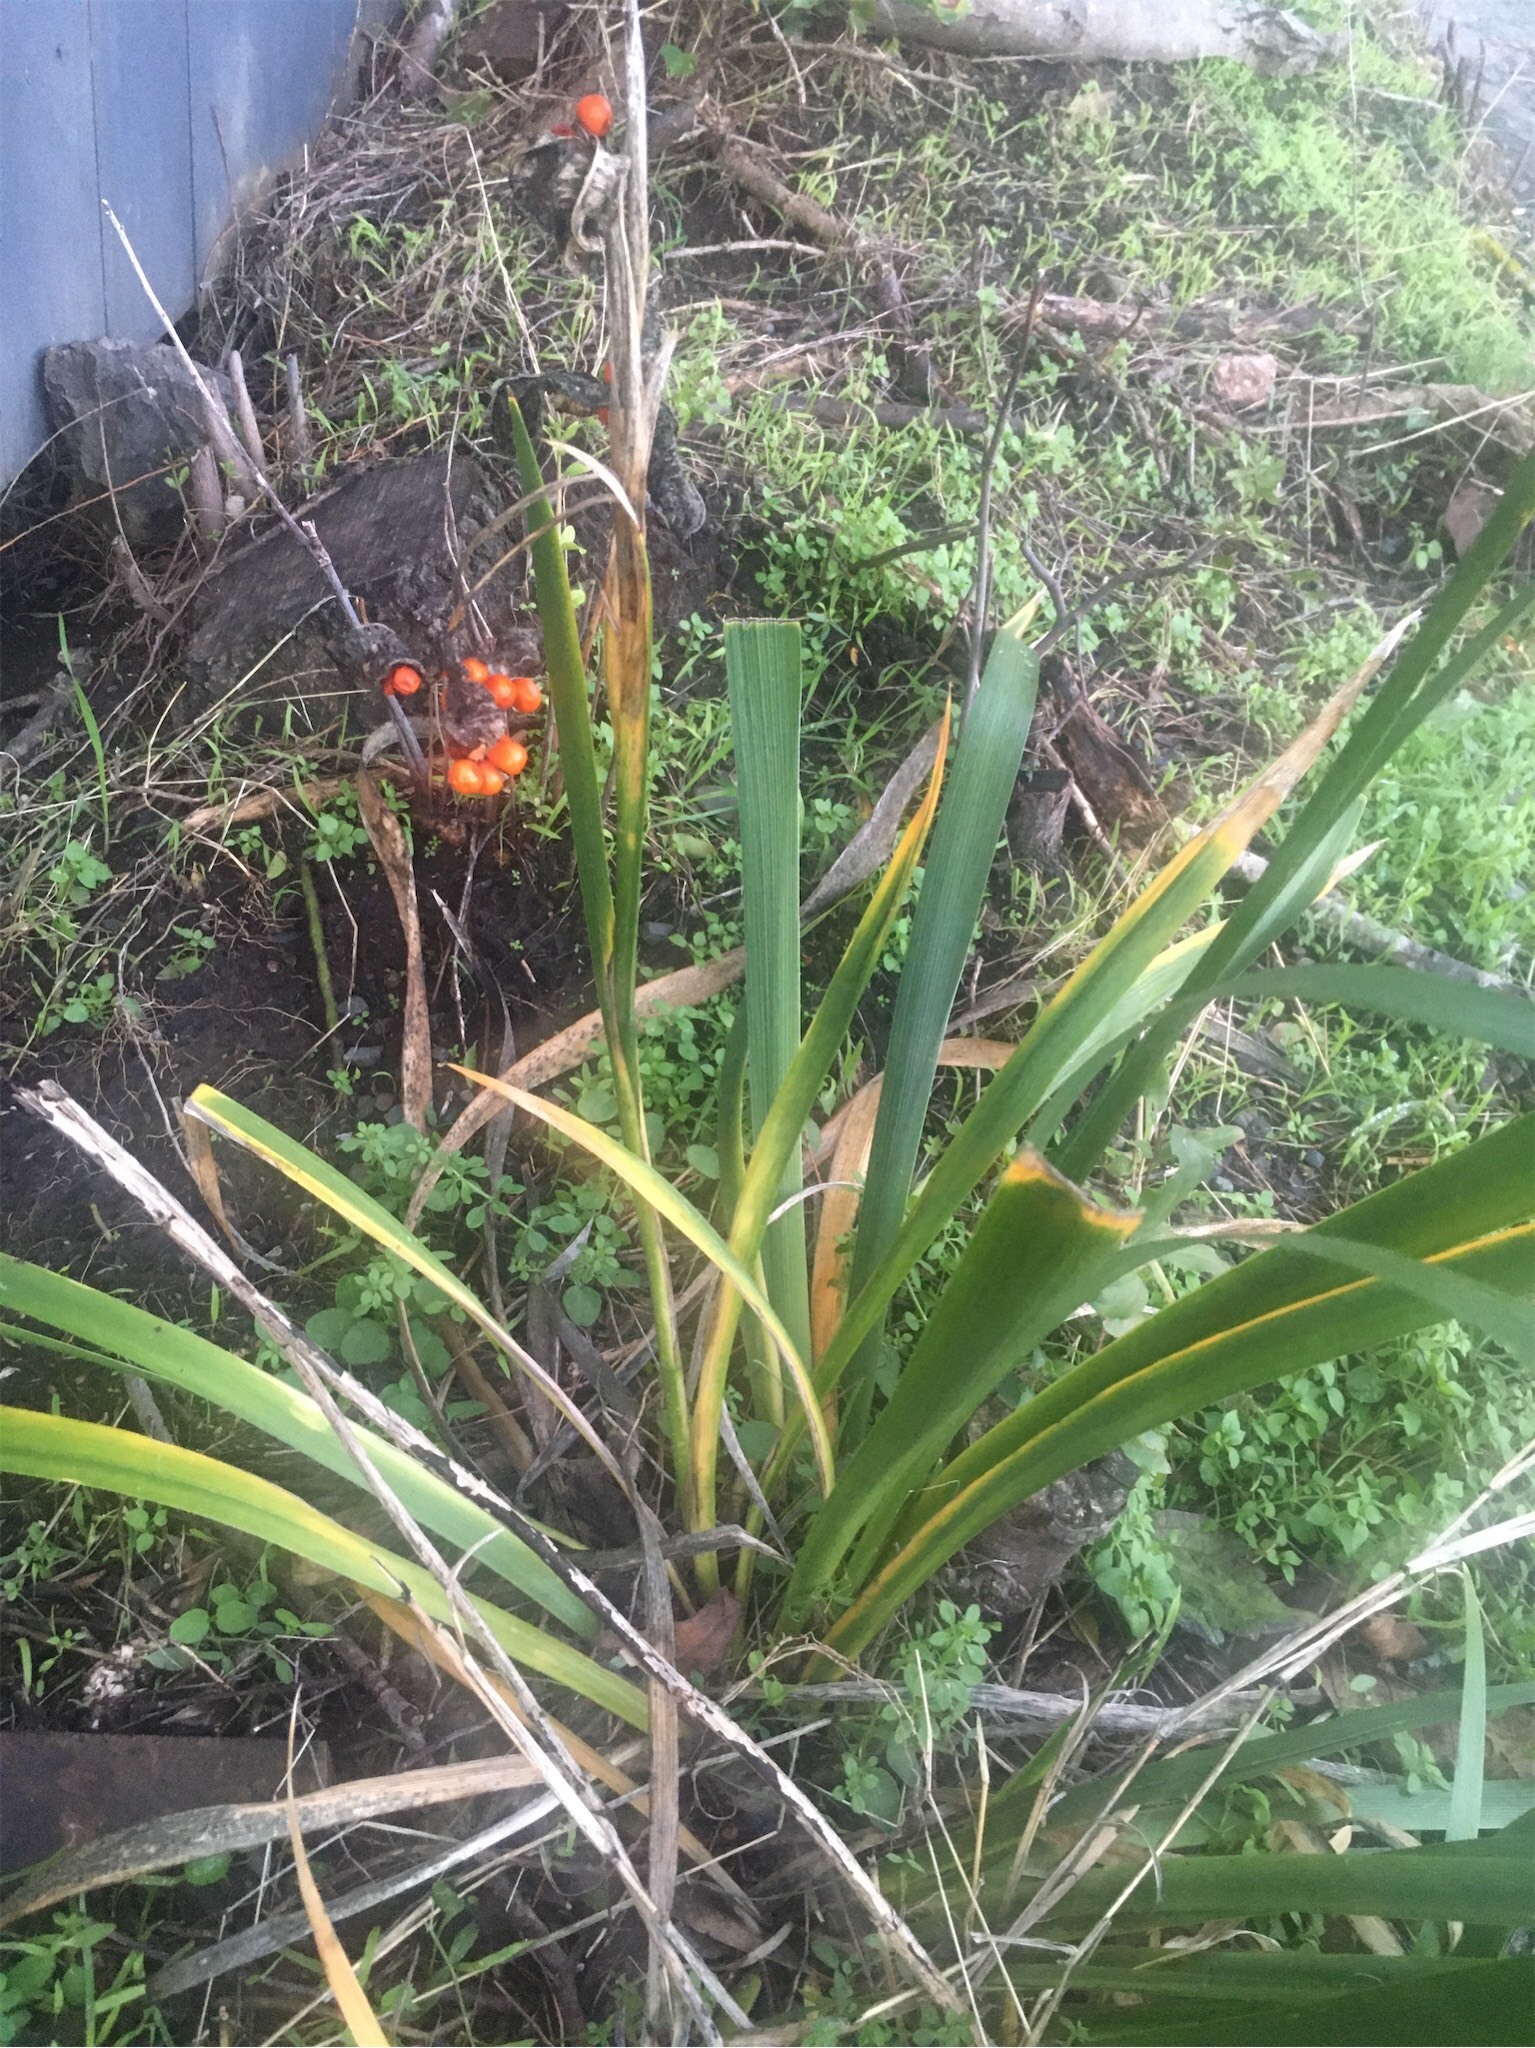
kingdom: Plantae
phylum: Tracheophyta
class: Liliopsida
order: Asparagales
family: Iridaceae
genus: Iris
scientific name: Iris foetidissima
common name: Stinking iris
